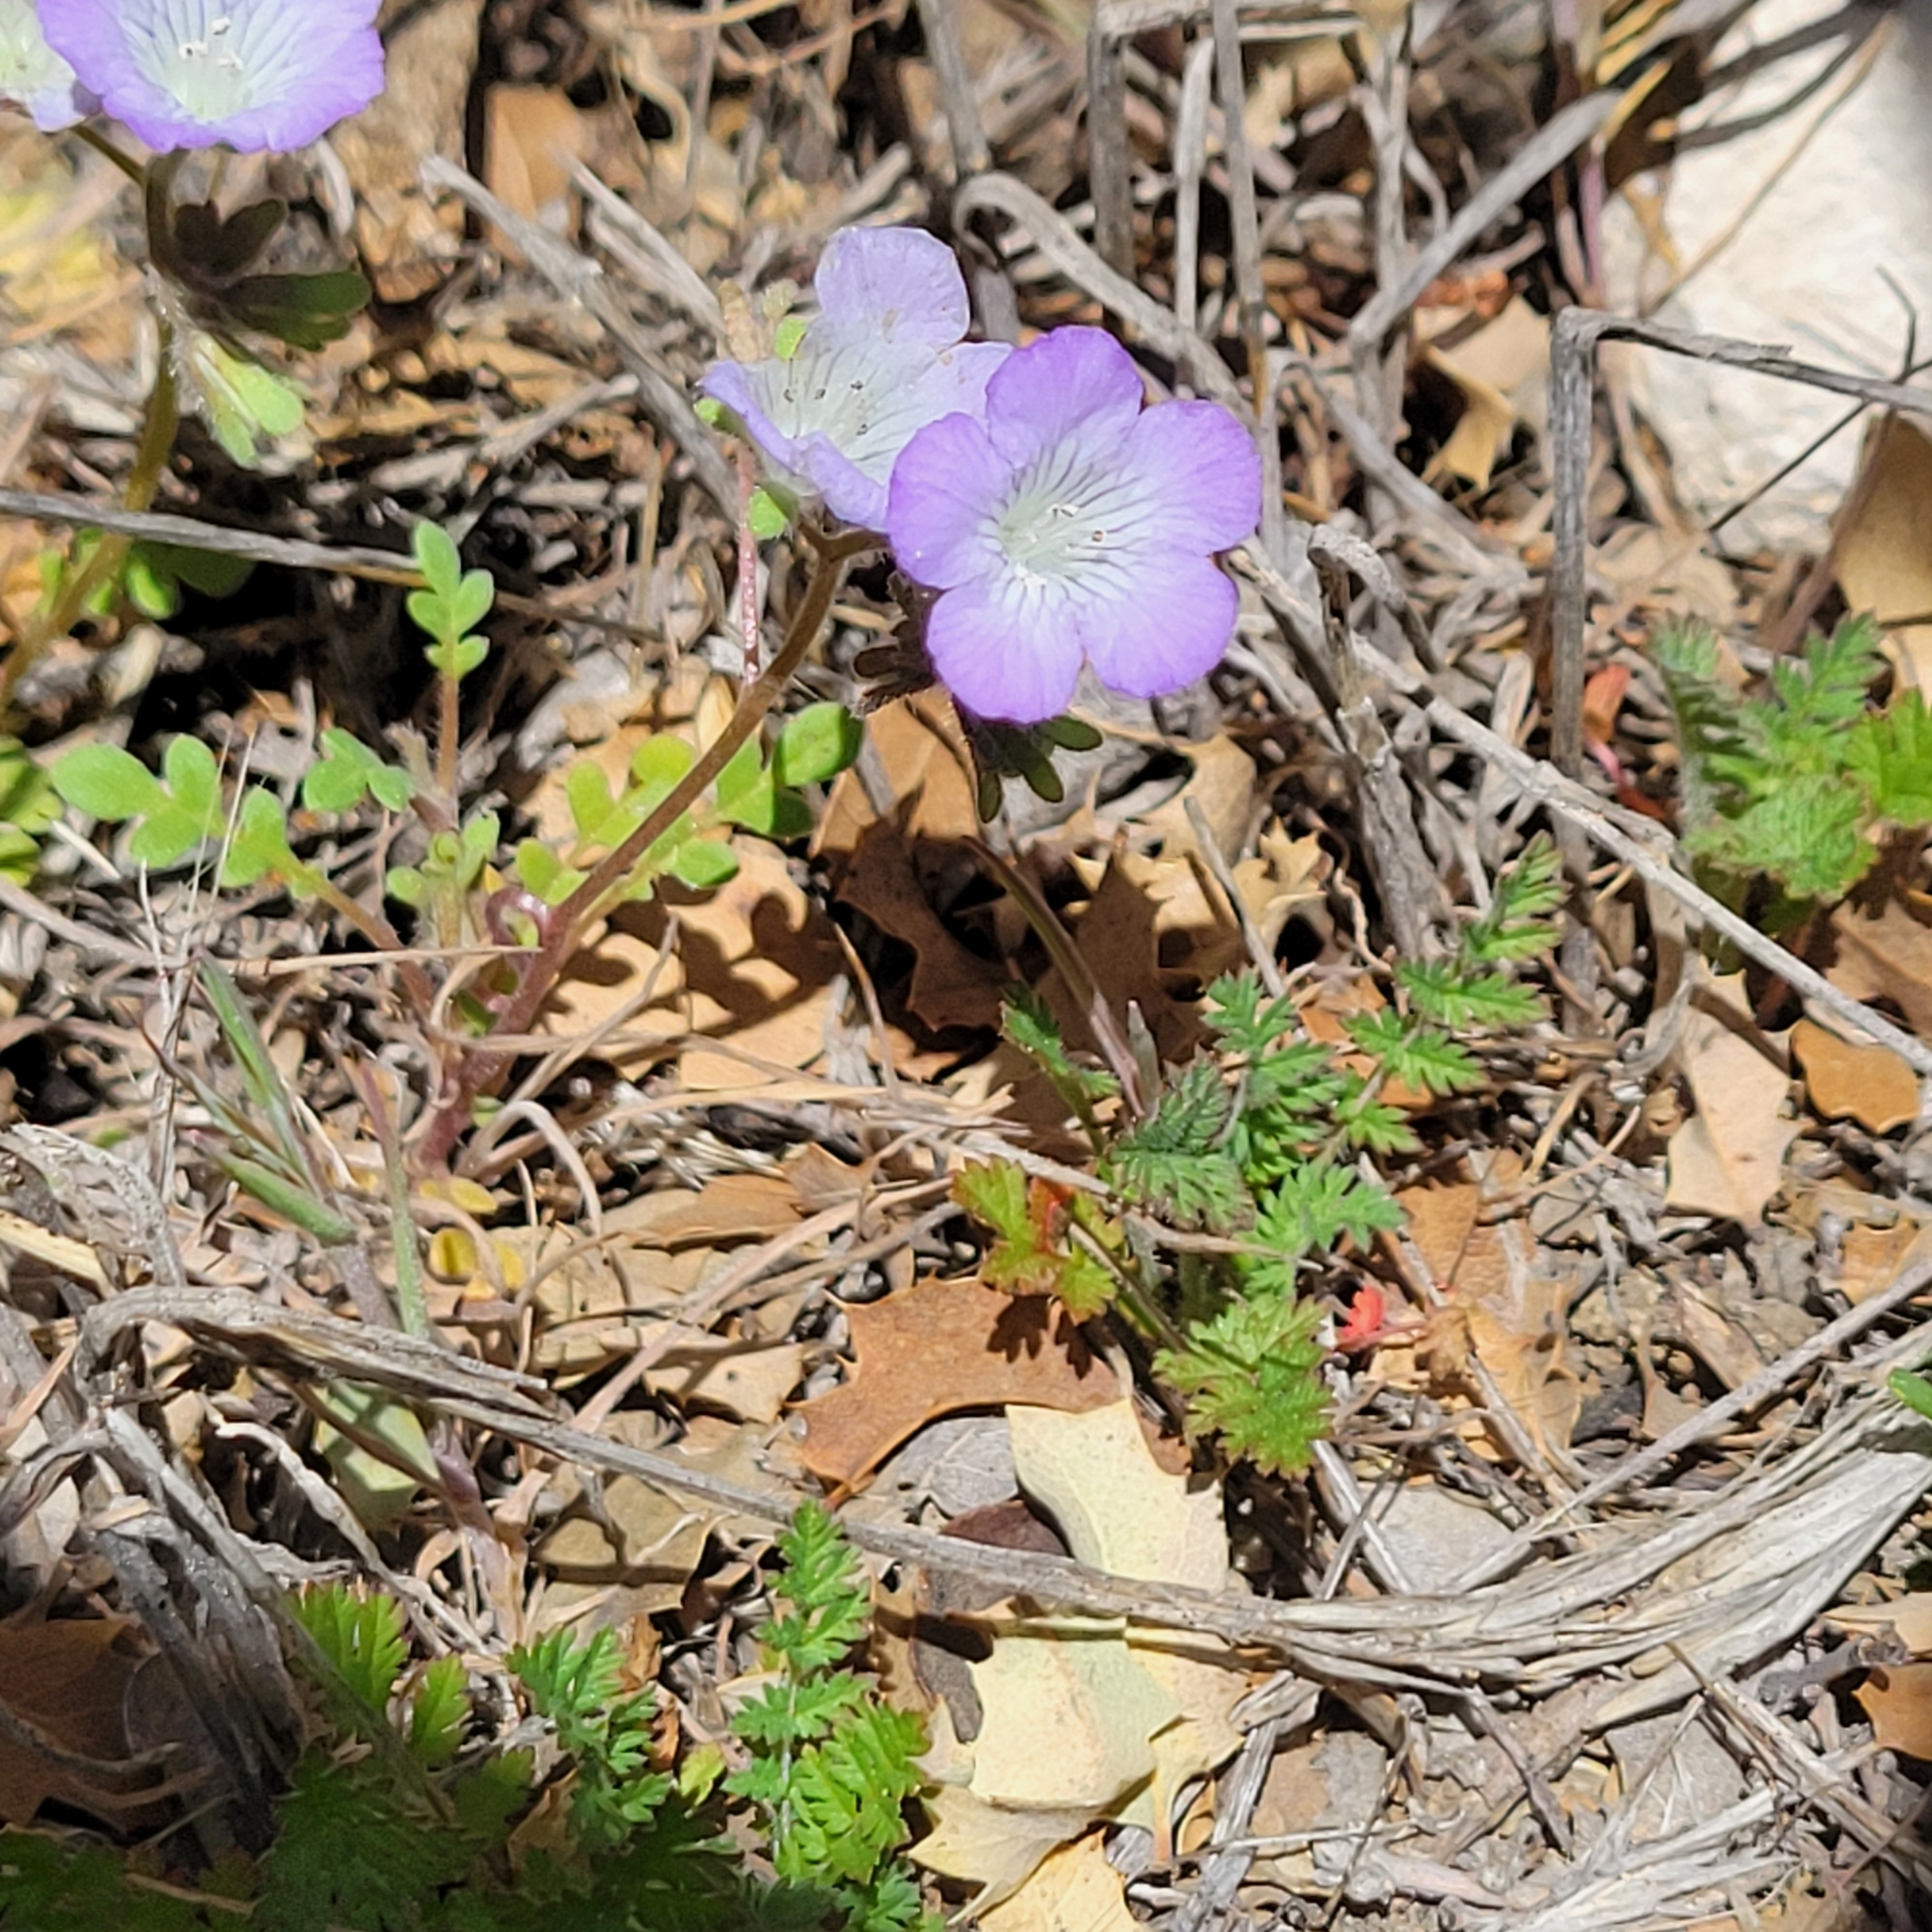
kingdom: Plantae
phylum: Tracheophyta
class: Magnoliopsida
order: Boraginales
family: Hydrophyllaceae
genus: Phacelia
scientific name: Phacelia douglasii
